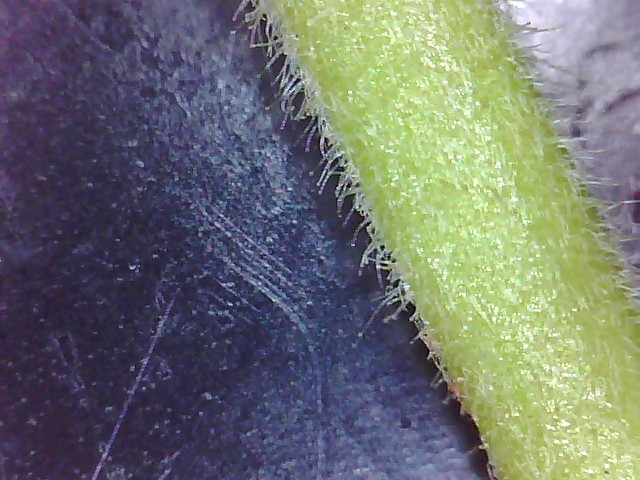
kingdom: Plantae
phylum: Tracheophyta
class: Magnoliopsida
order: Caryophyllales
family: Caryophyllaceae
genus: Silene
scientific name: Silene latifolia
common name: White campion
